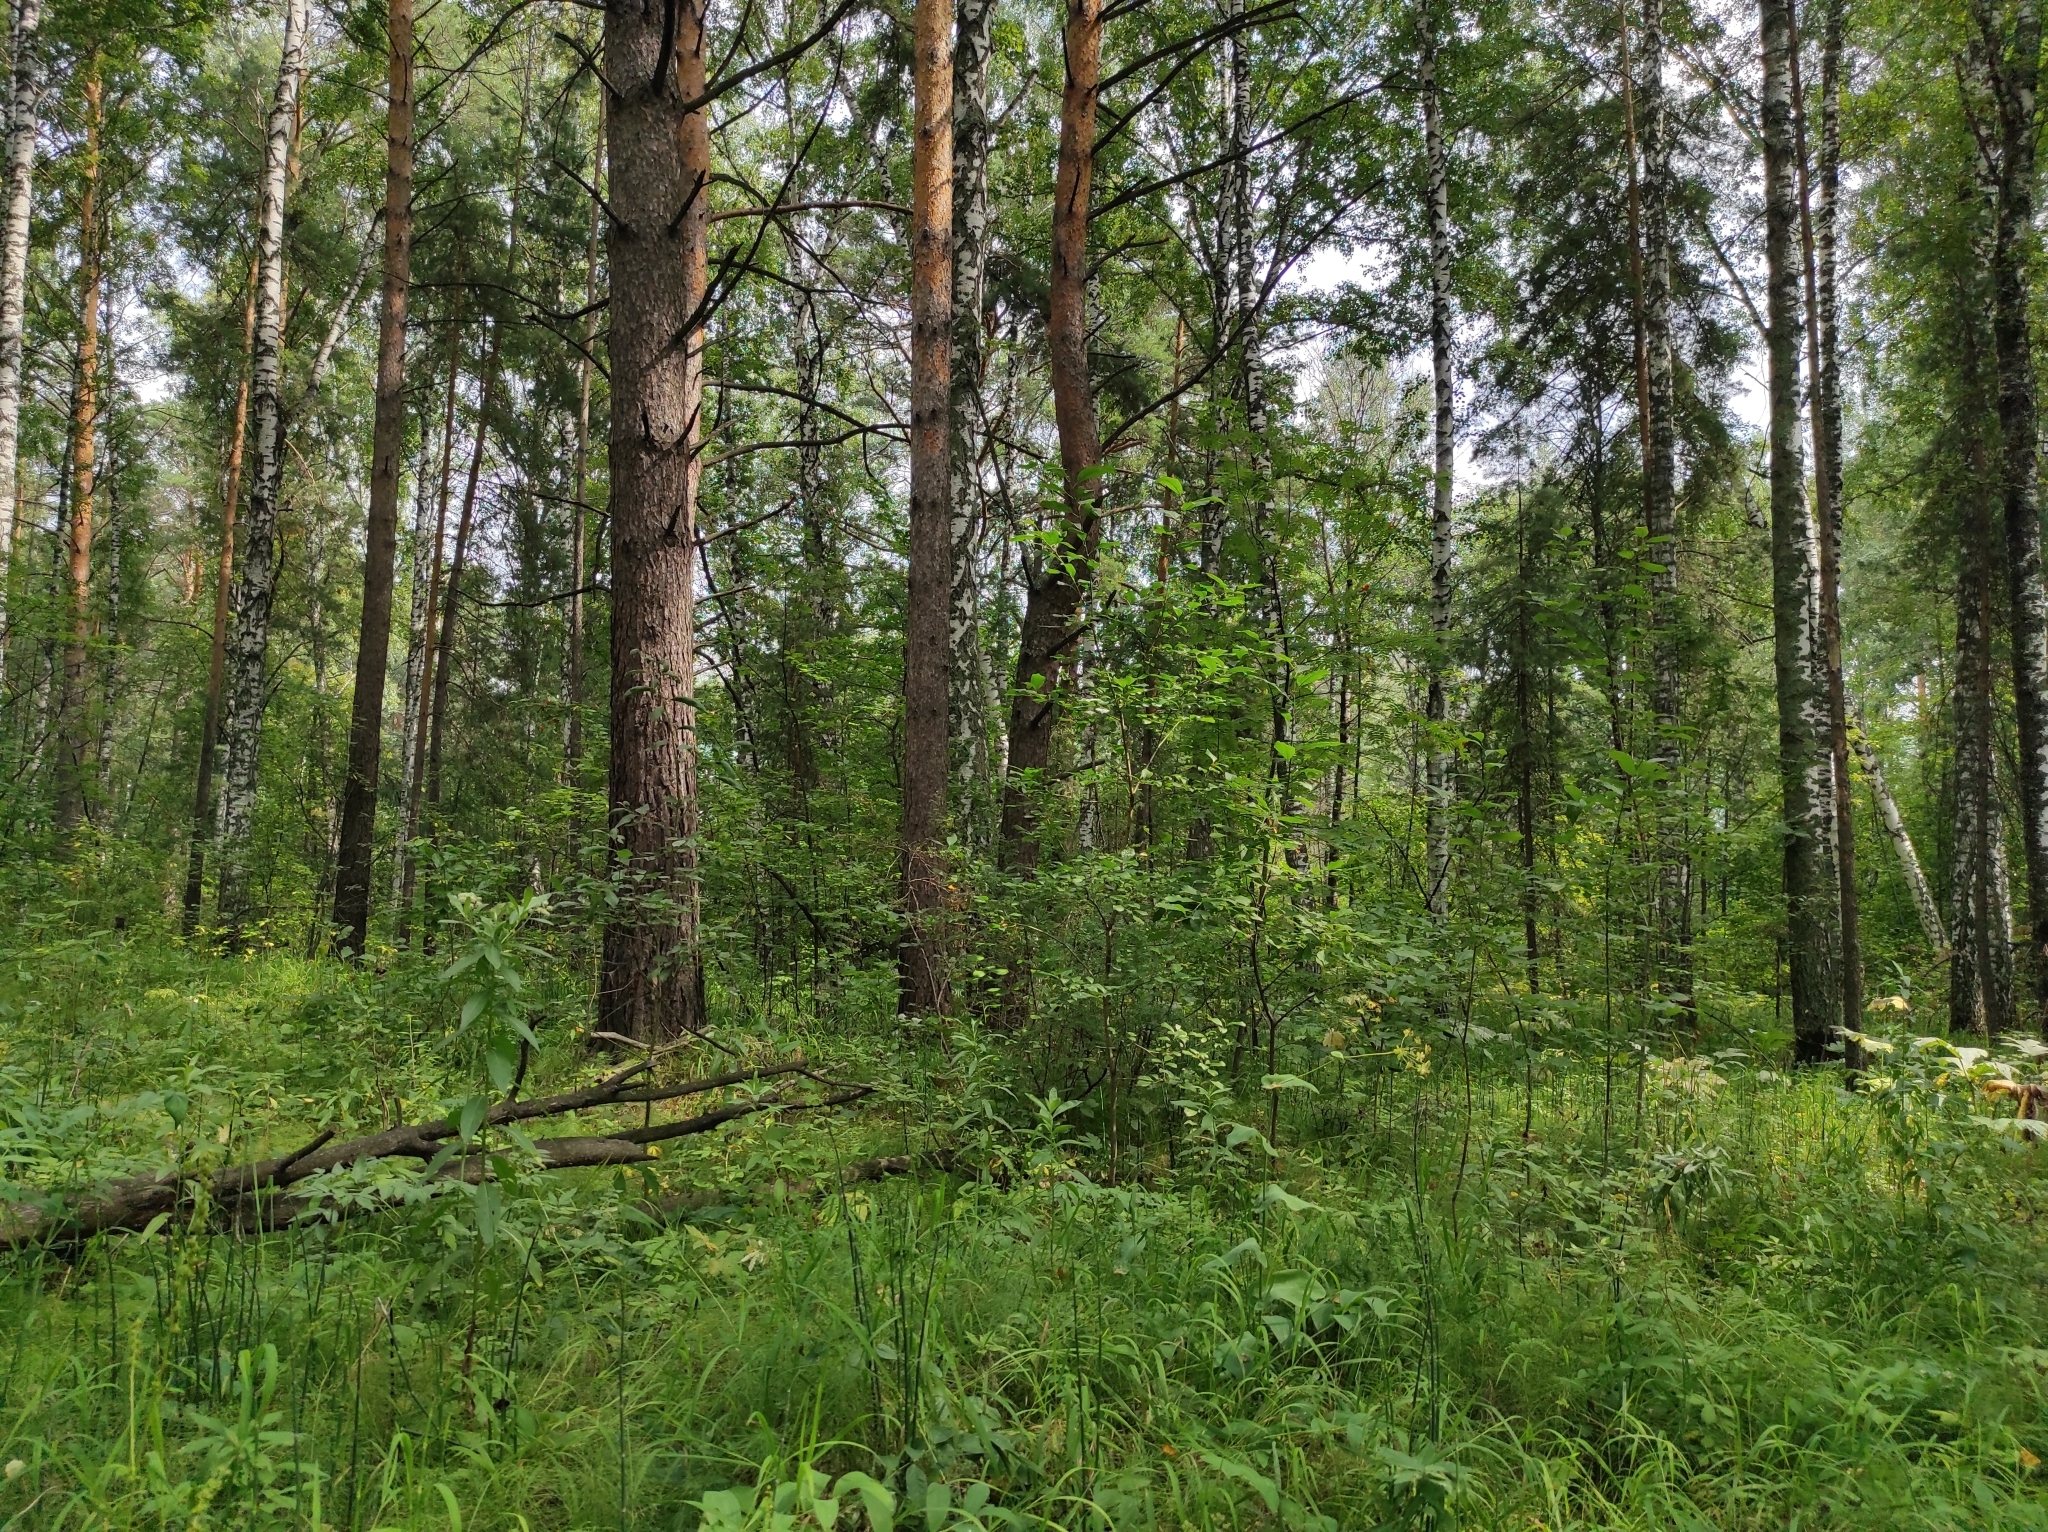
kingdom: Plantae
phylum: Tracheophyta
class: Pinopsida
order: Pinales
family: Pinaceae
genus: Pinus
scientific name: Pinus sylvestris
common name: Scots pine
